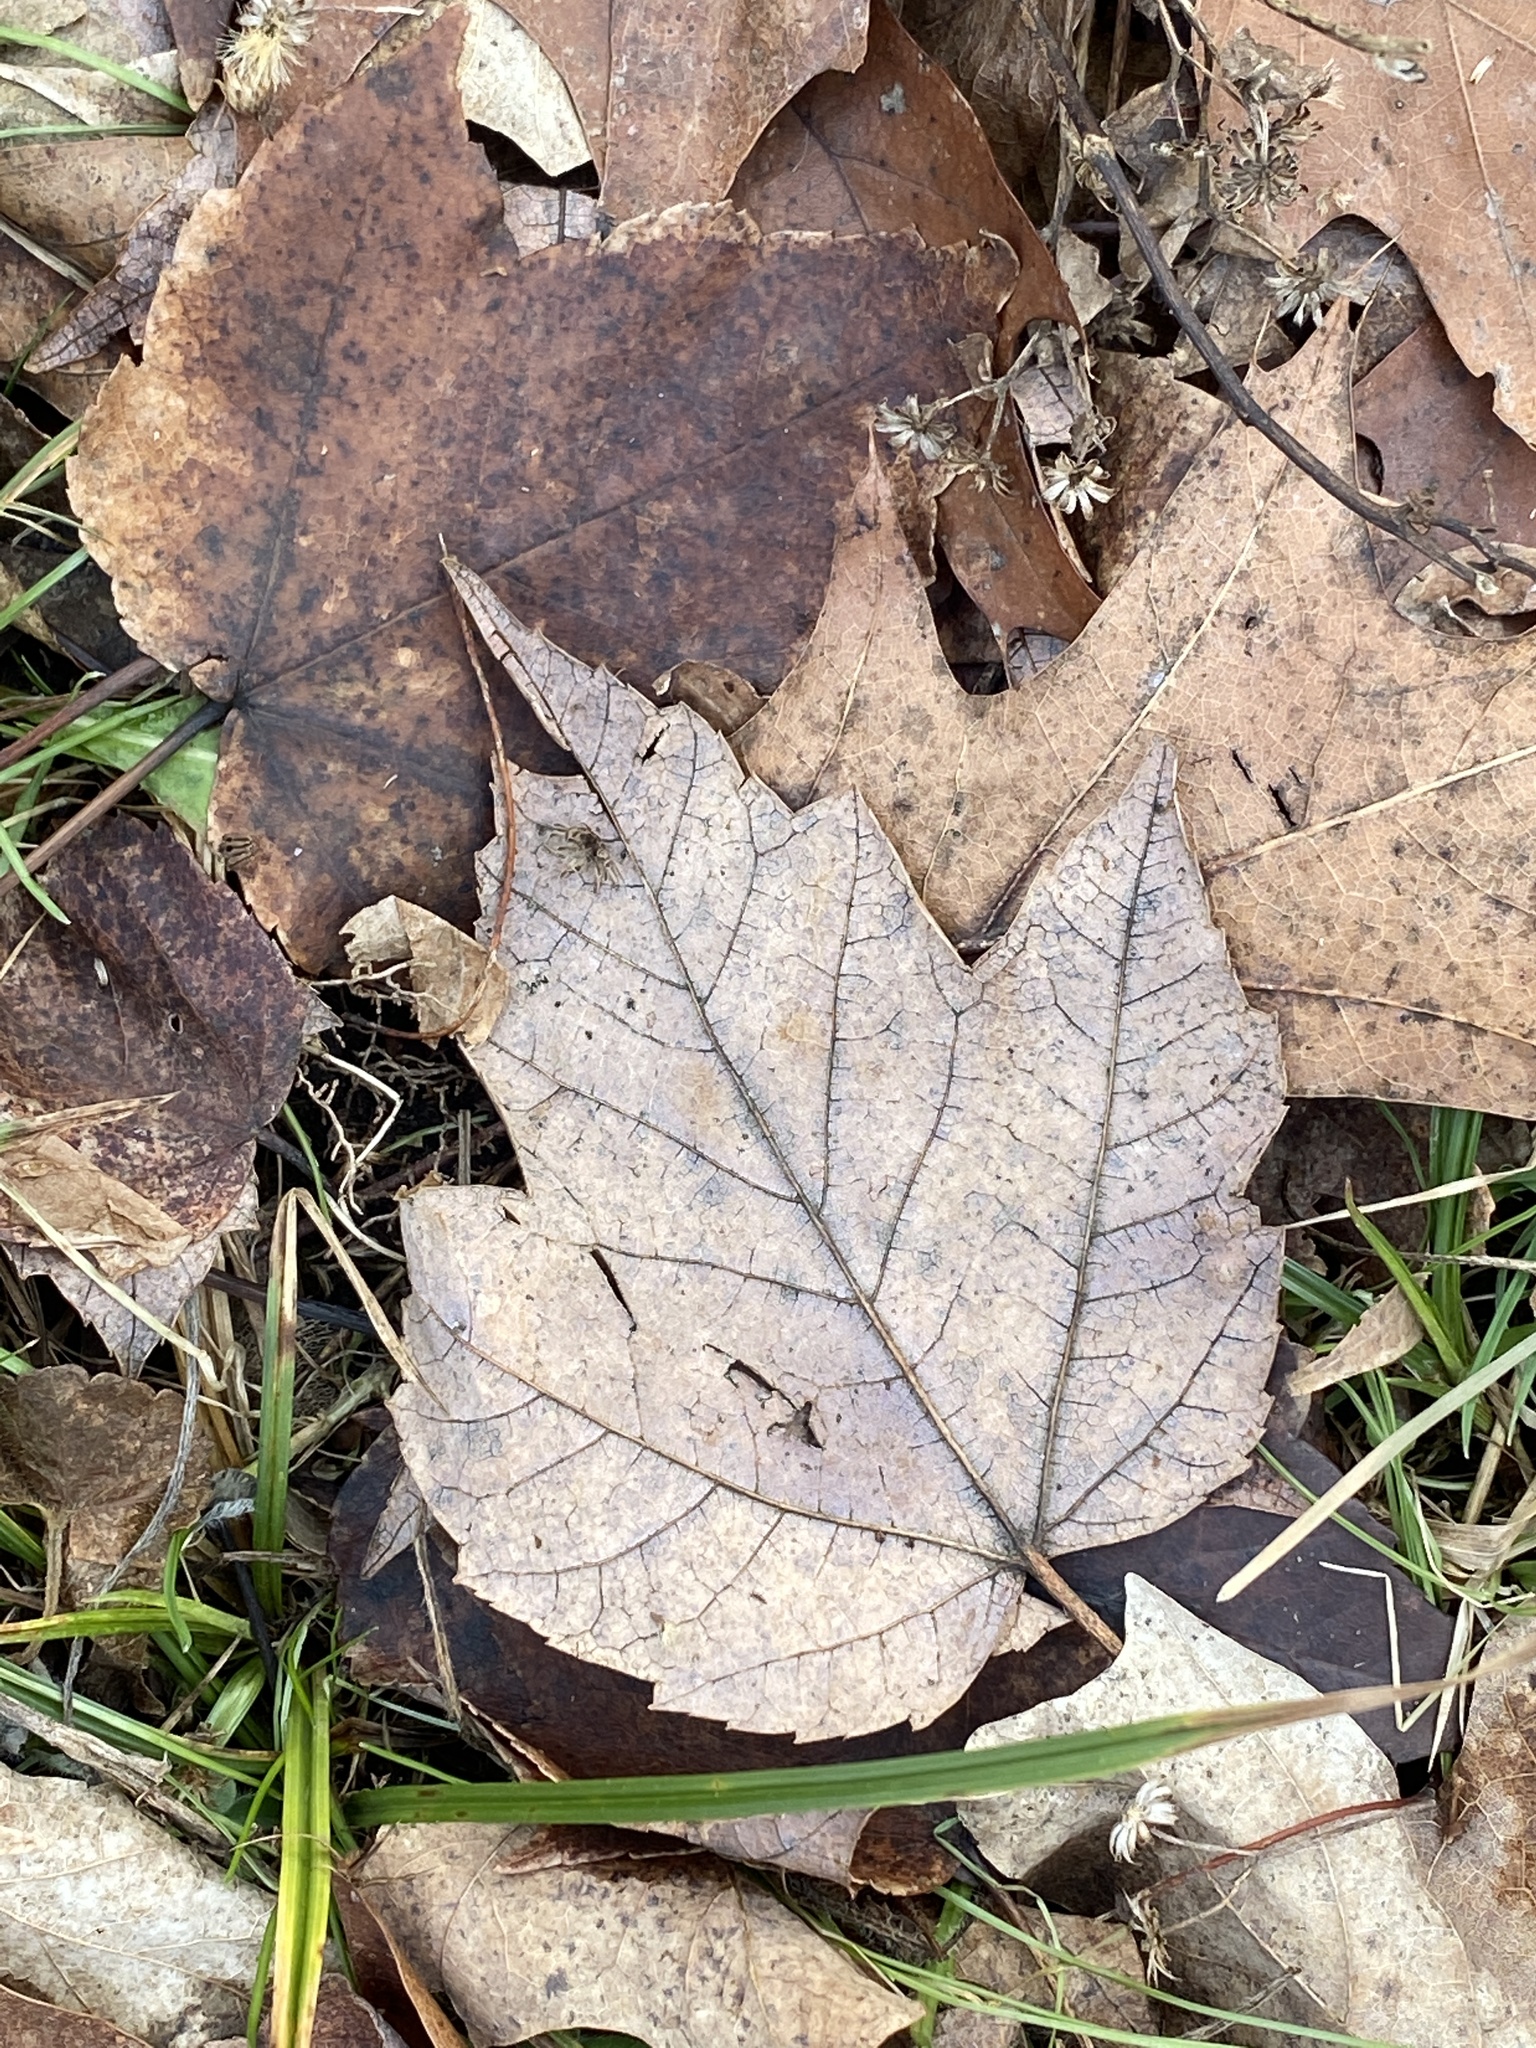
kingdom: Plantae
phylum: Tracheophyta
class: Magnoliopsida
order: Sapindales
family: Sapindaceae
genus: Acer
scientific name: Acer rubrum
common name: Red maple
